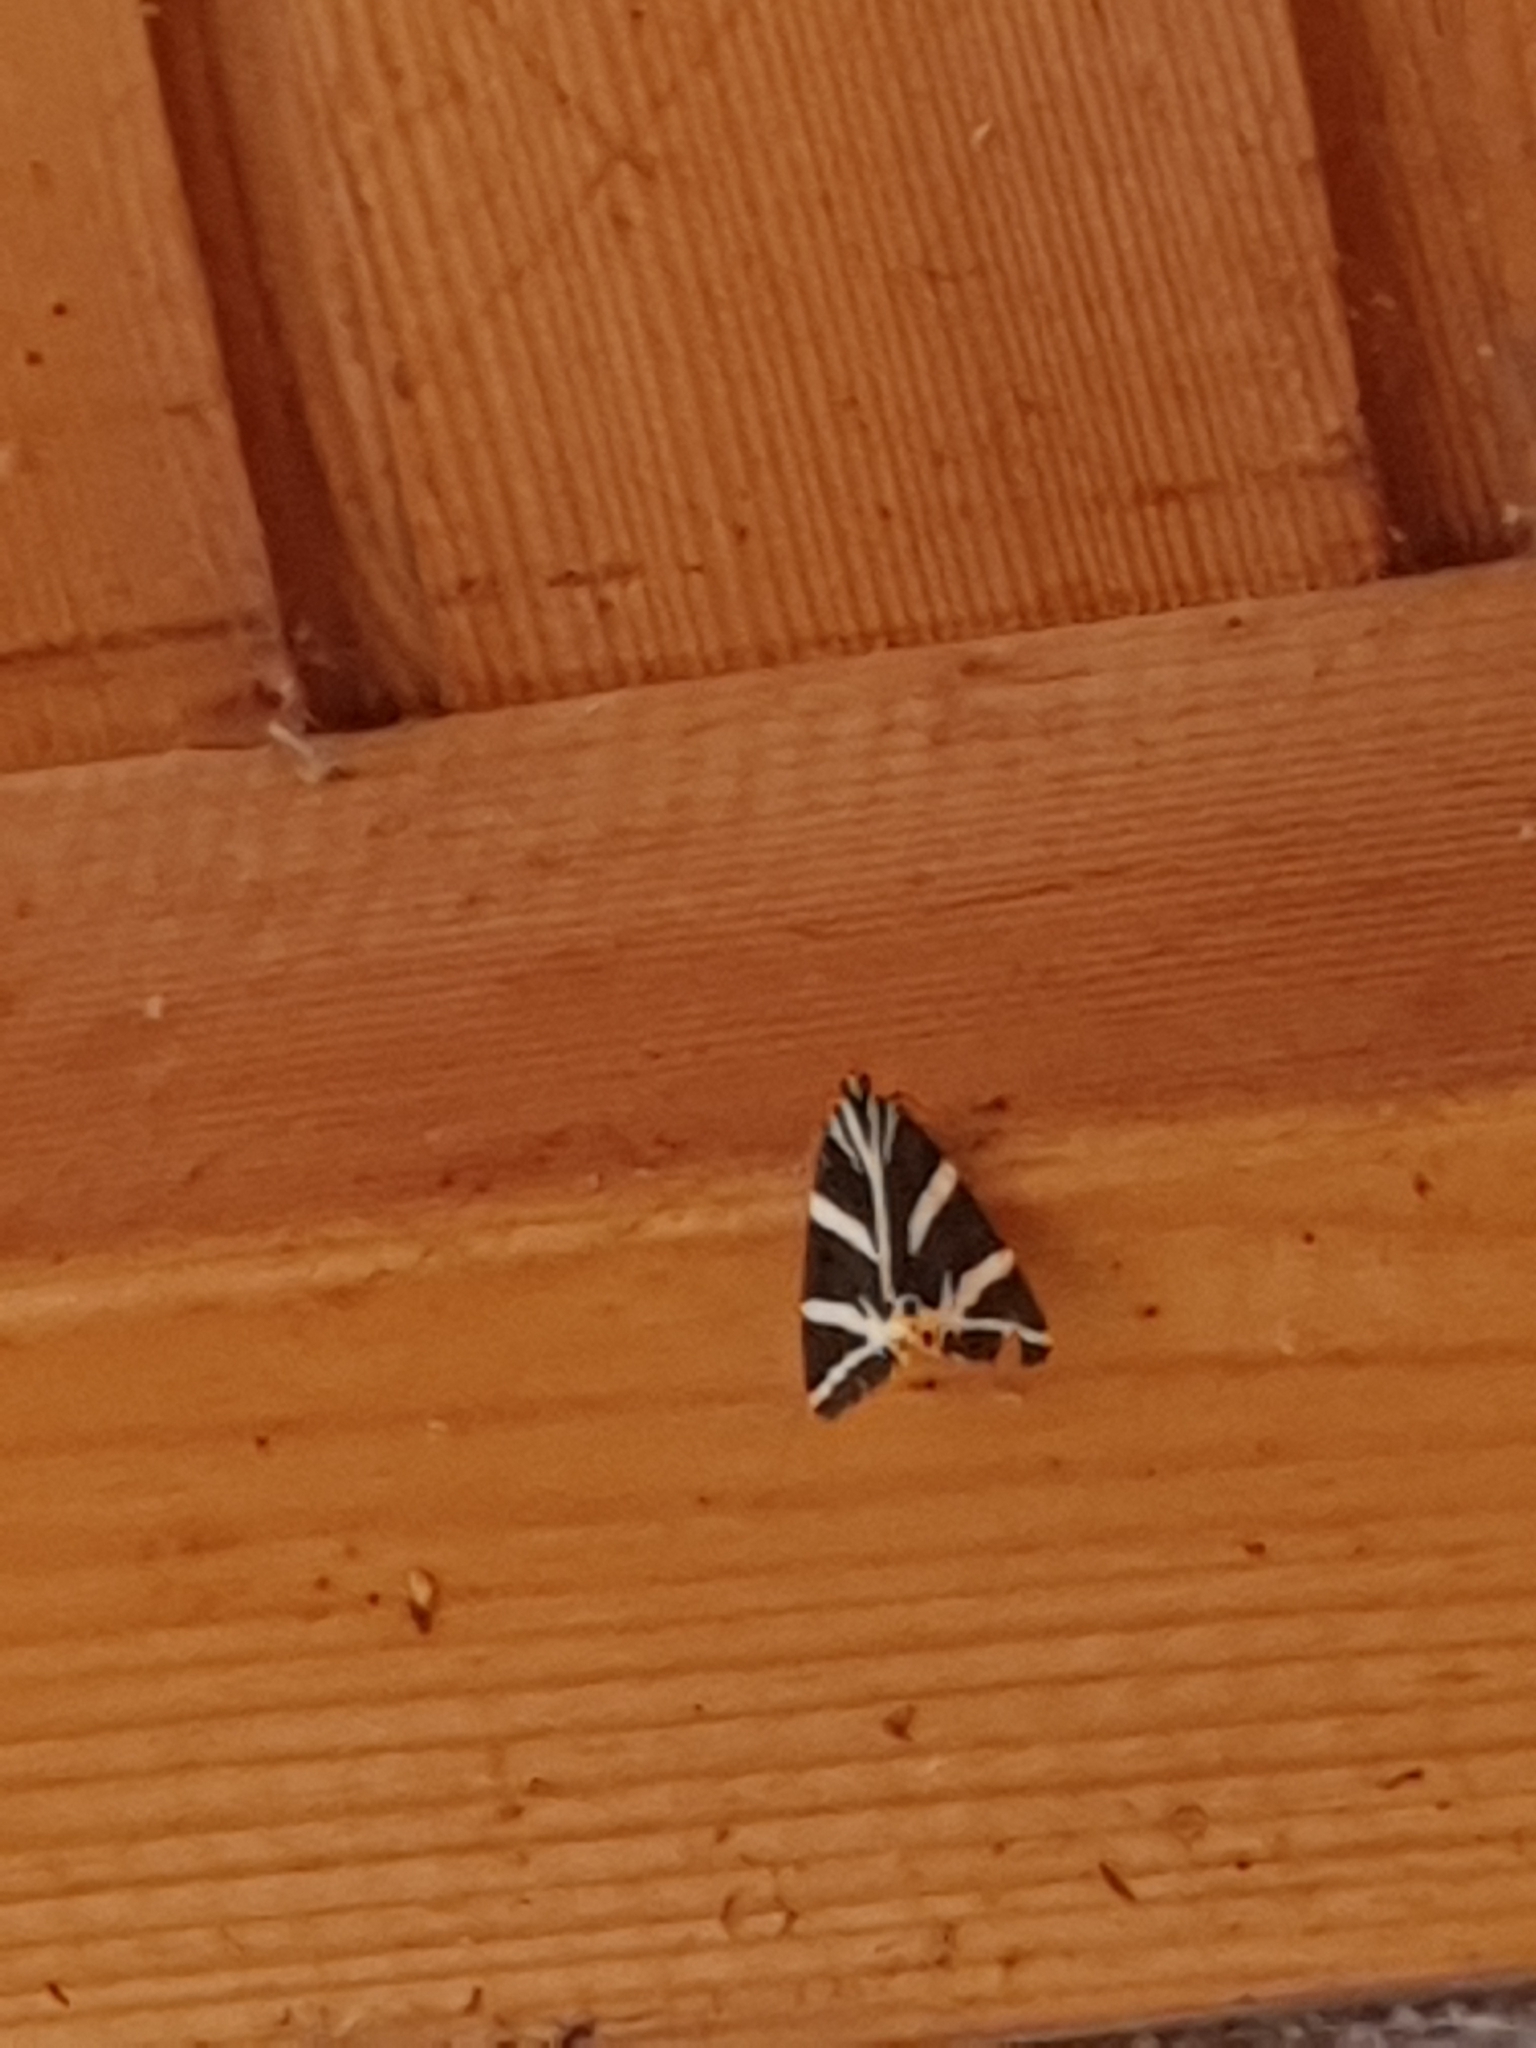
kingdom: Animalia
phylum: Arthropoda
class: Insecta
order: Lepidoptera
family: Erebidae
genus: Euplagia
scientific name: Euplagia quadripunctaria
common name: Jersey tiger
